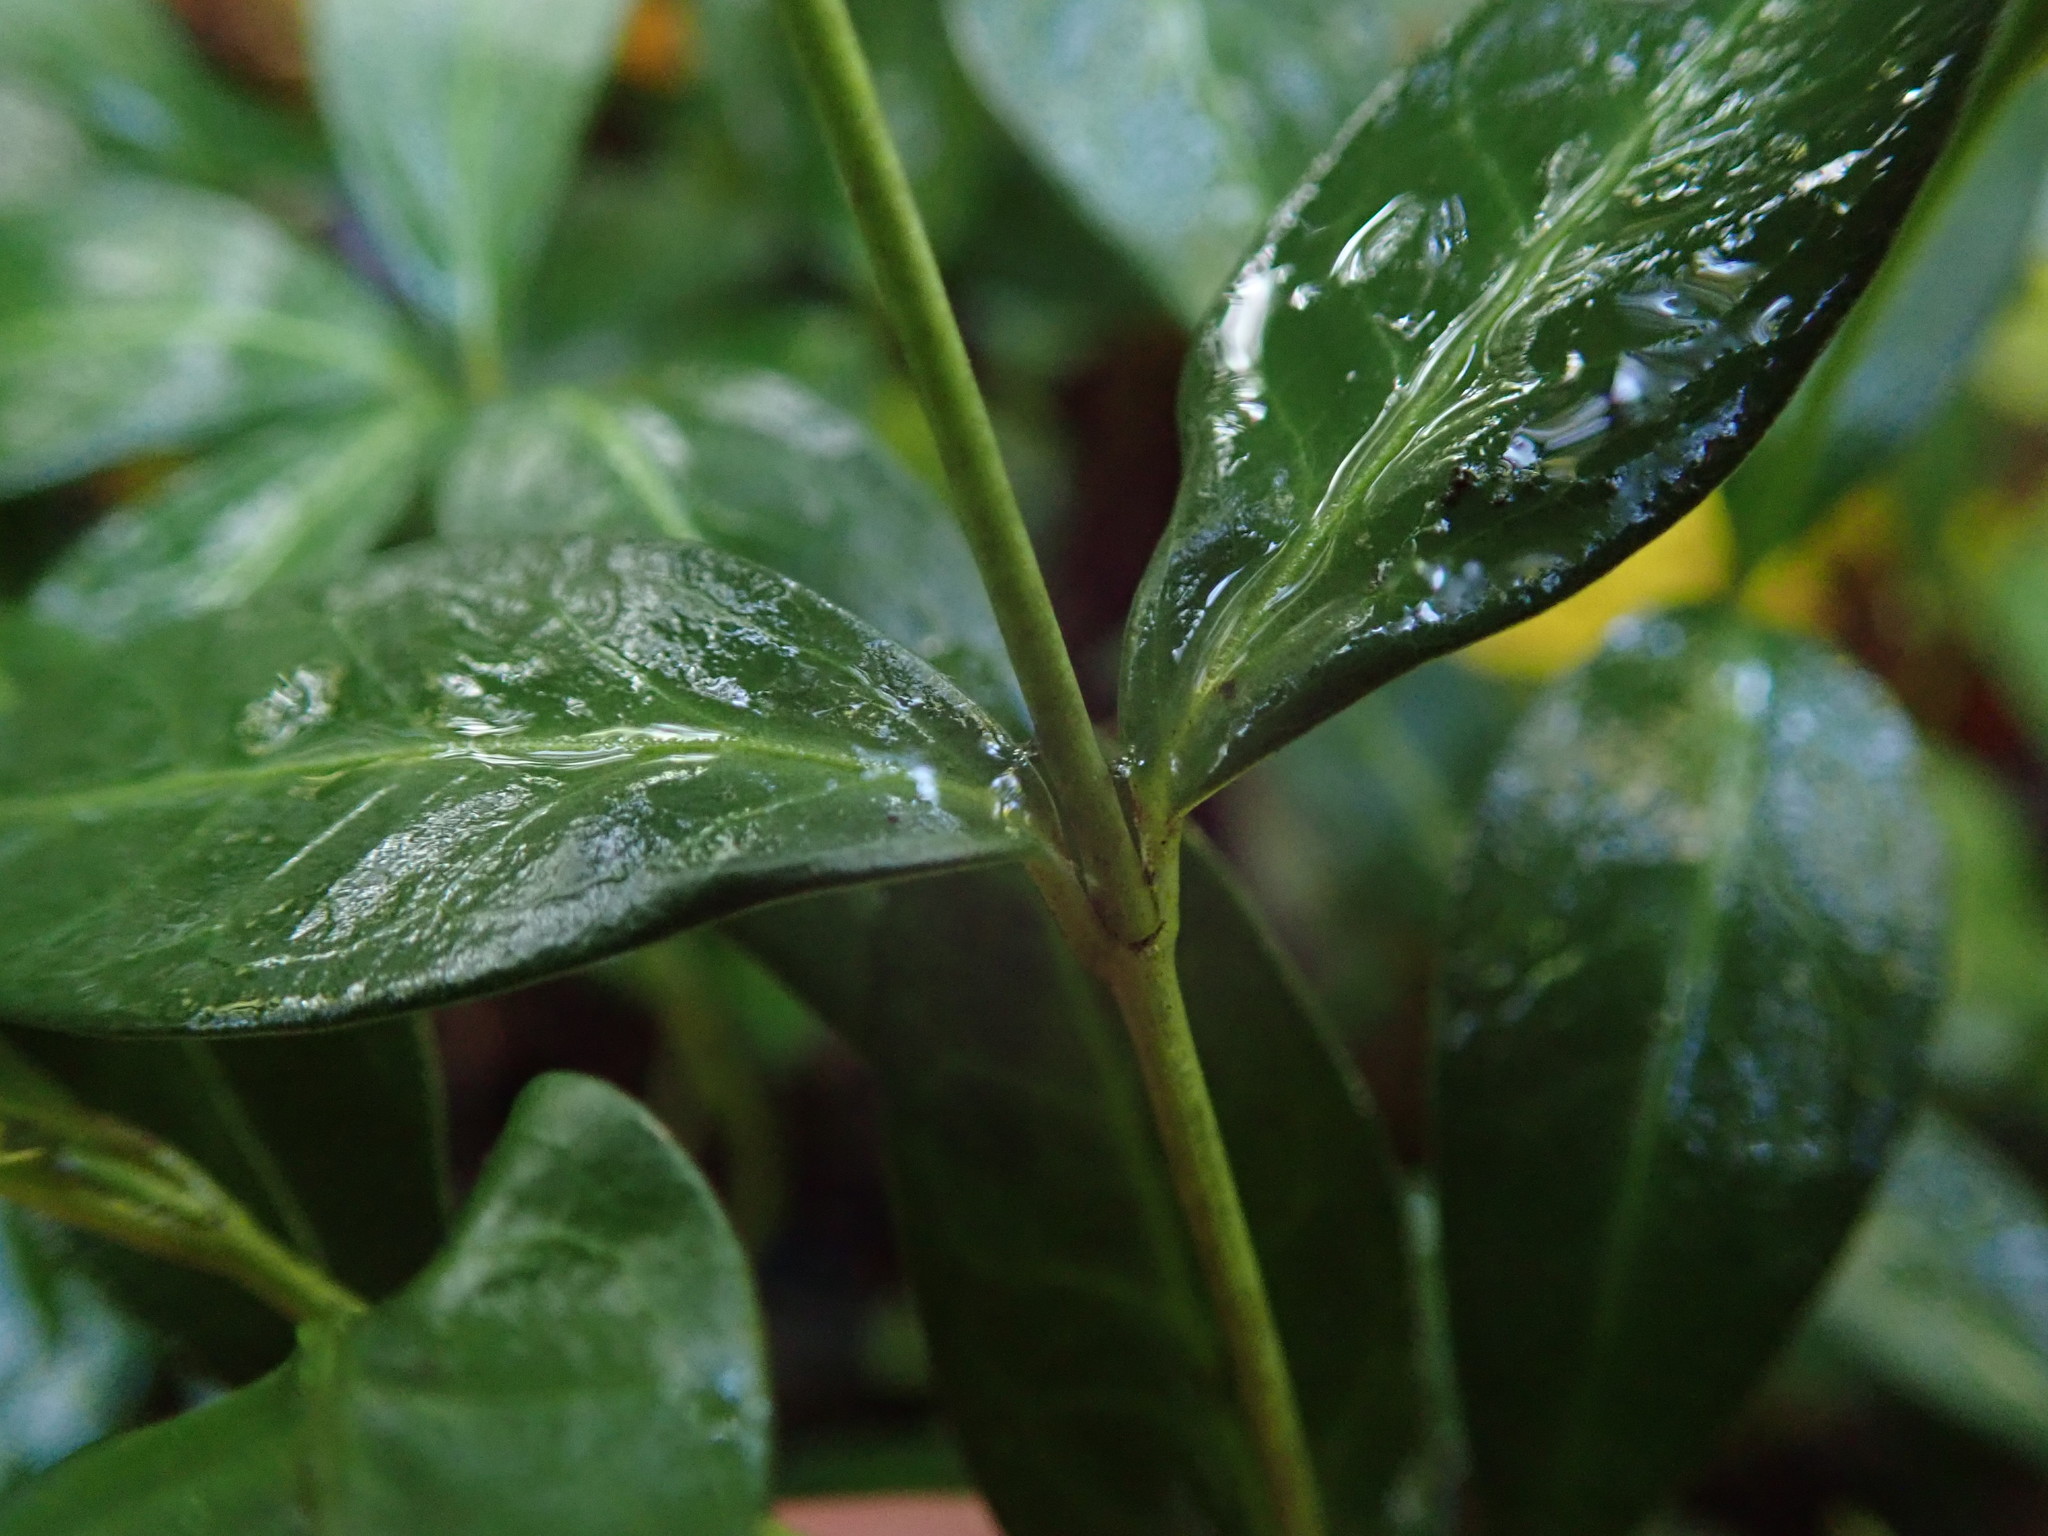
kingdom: Plantae
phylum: Tracheophyta
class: Magnoliopsida
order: Gentianales
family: Apocynaceae
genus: Vinca
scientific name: Vinca minor
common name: Lesser periwinkle
